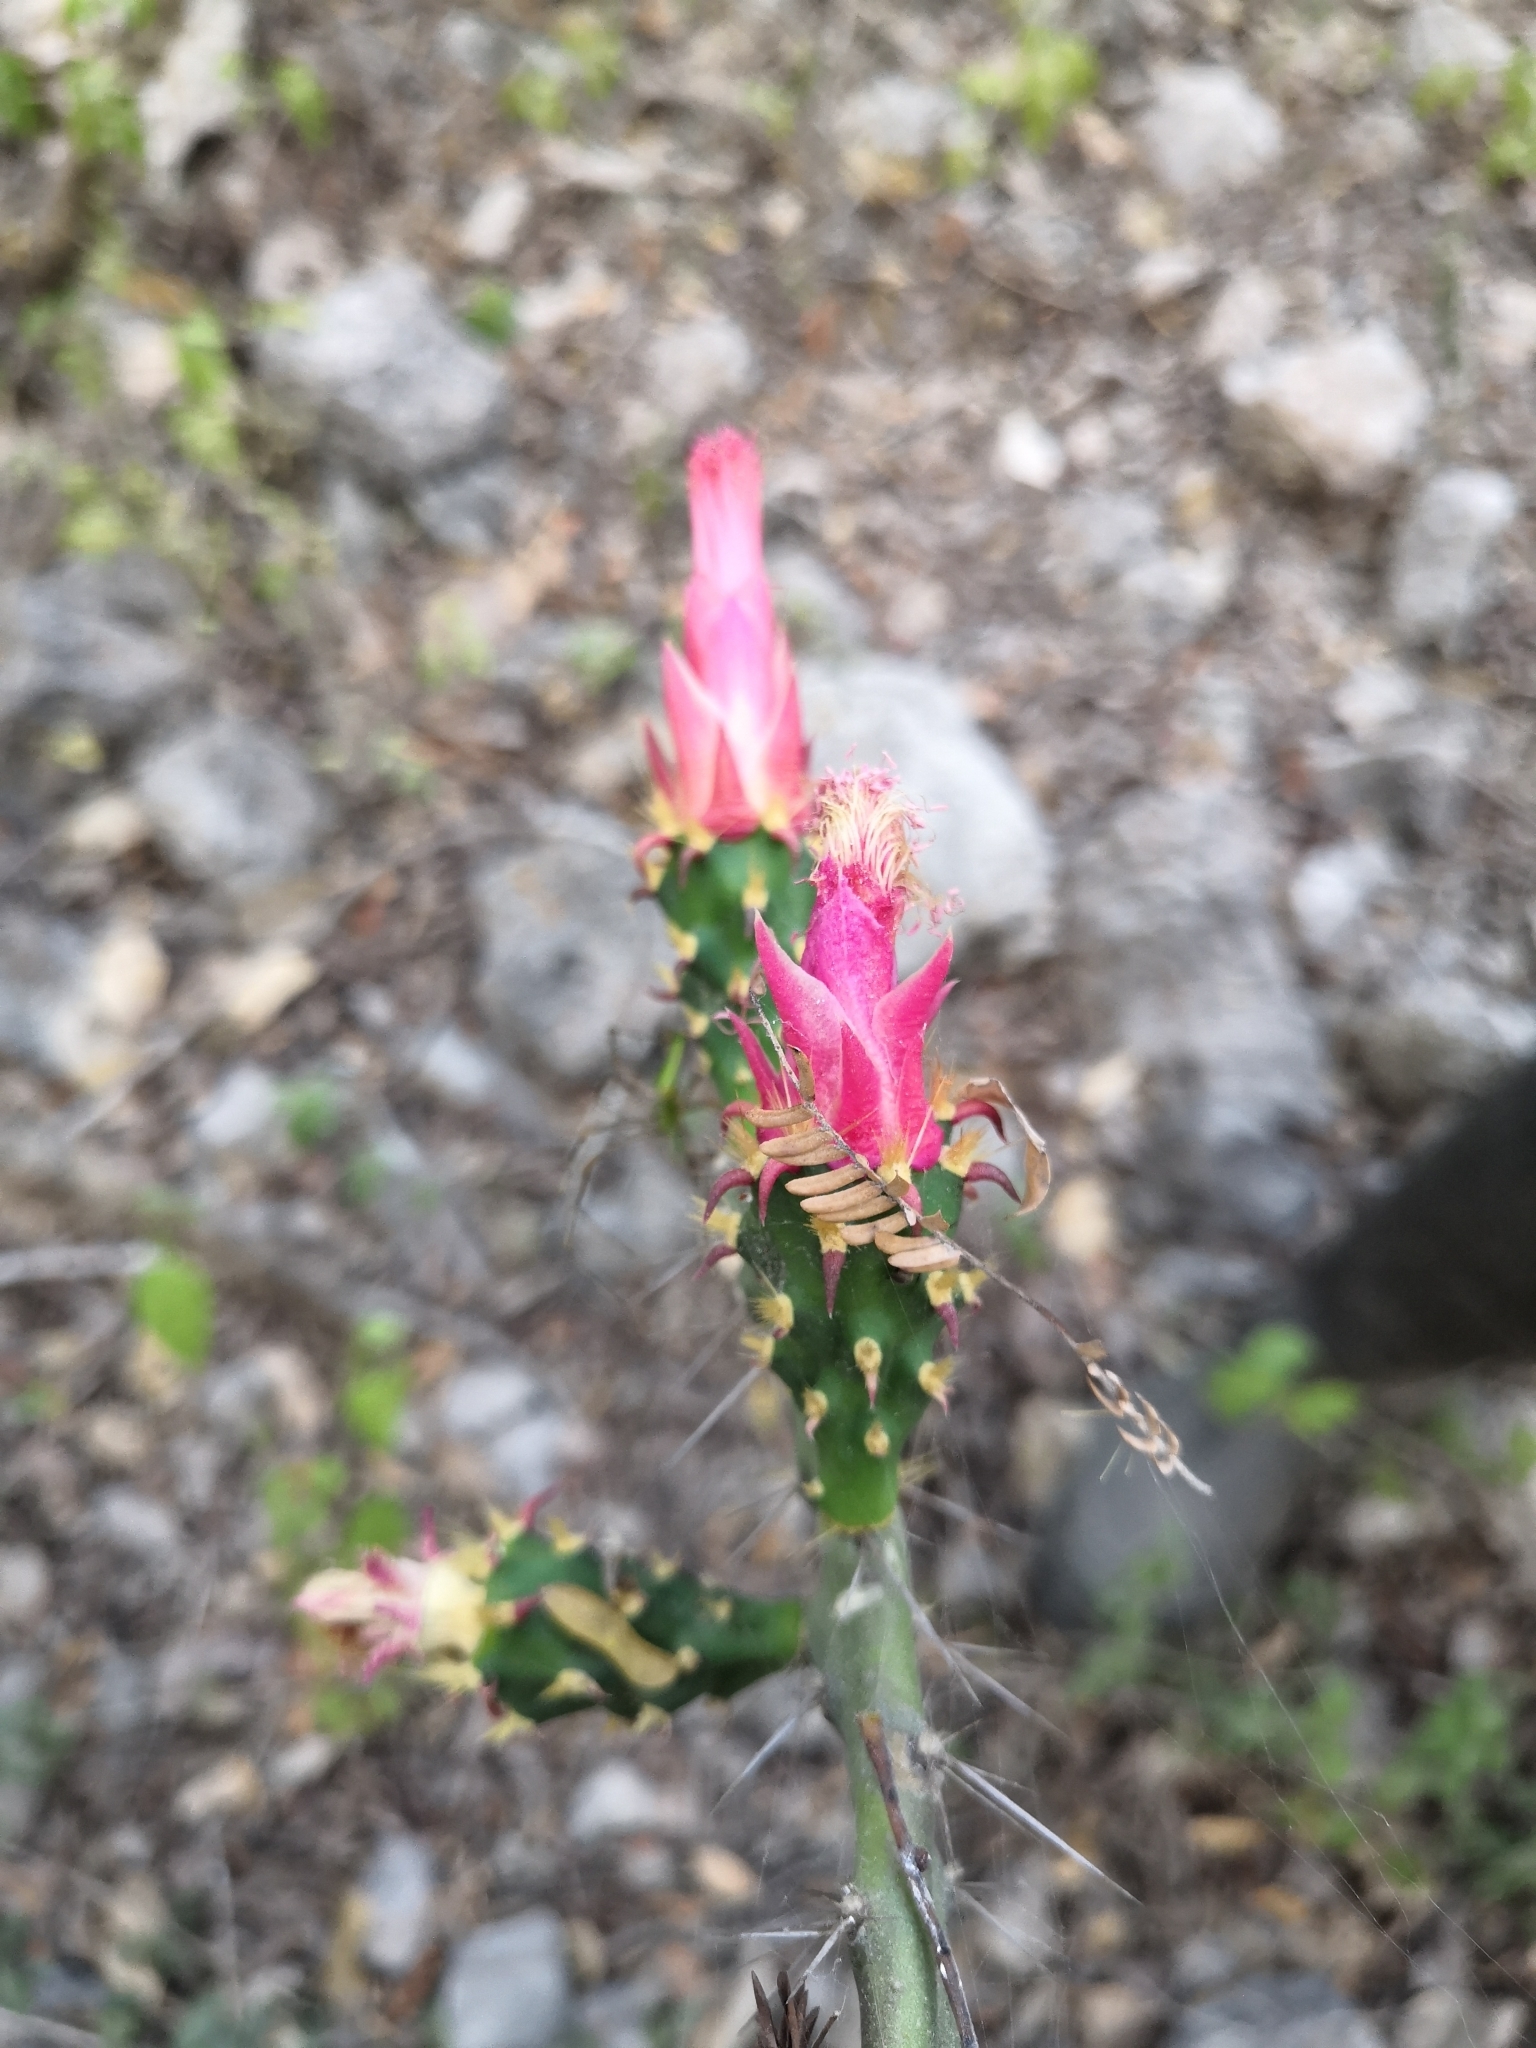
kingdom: Plantae
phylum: Tracheophyta
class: Magnoliopsida
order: Caryophyllales
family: Cactaceae
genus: Opuntia
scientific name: Opuntia hyptiacantha
